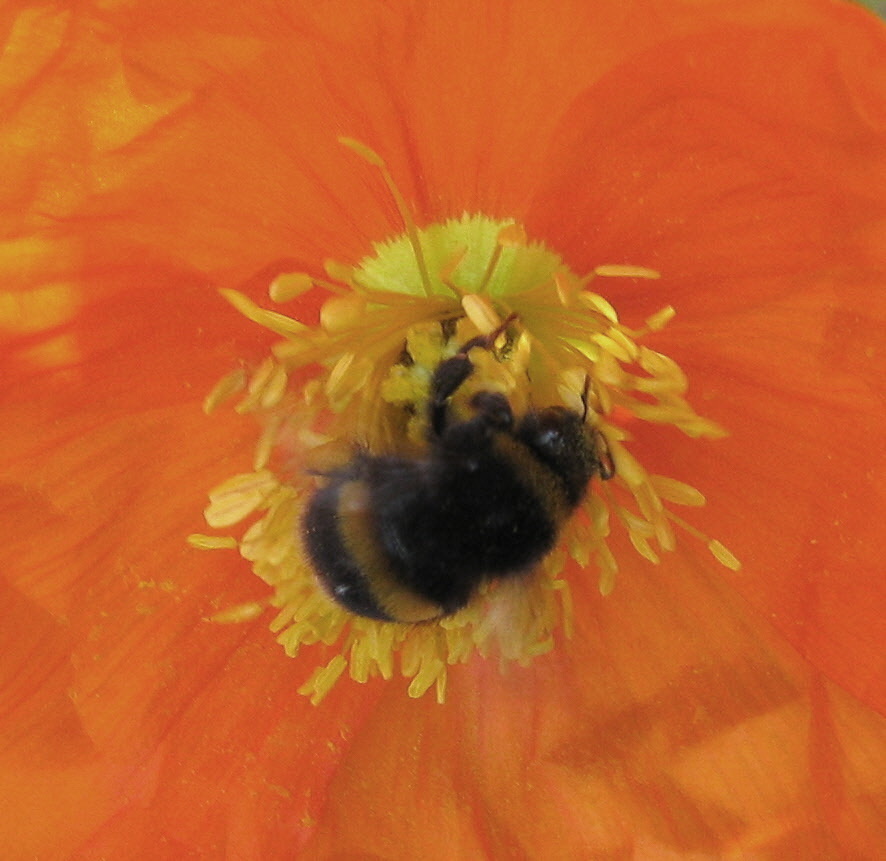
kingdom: Animalia
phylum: Arthropoda
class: Insecta
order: Hymenoptera
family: Apidae
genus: Bombus
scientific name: Bombus terrestris
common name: Buff-tailed bumblebee
